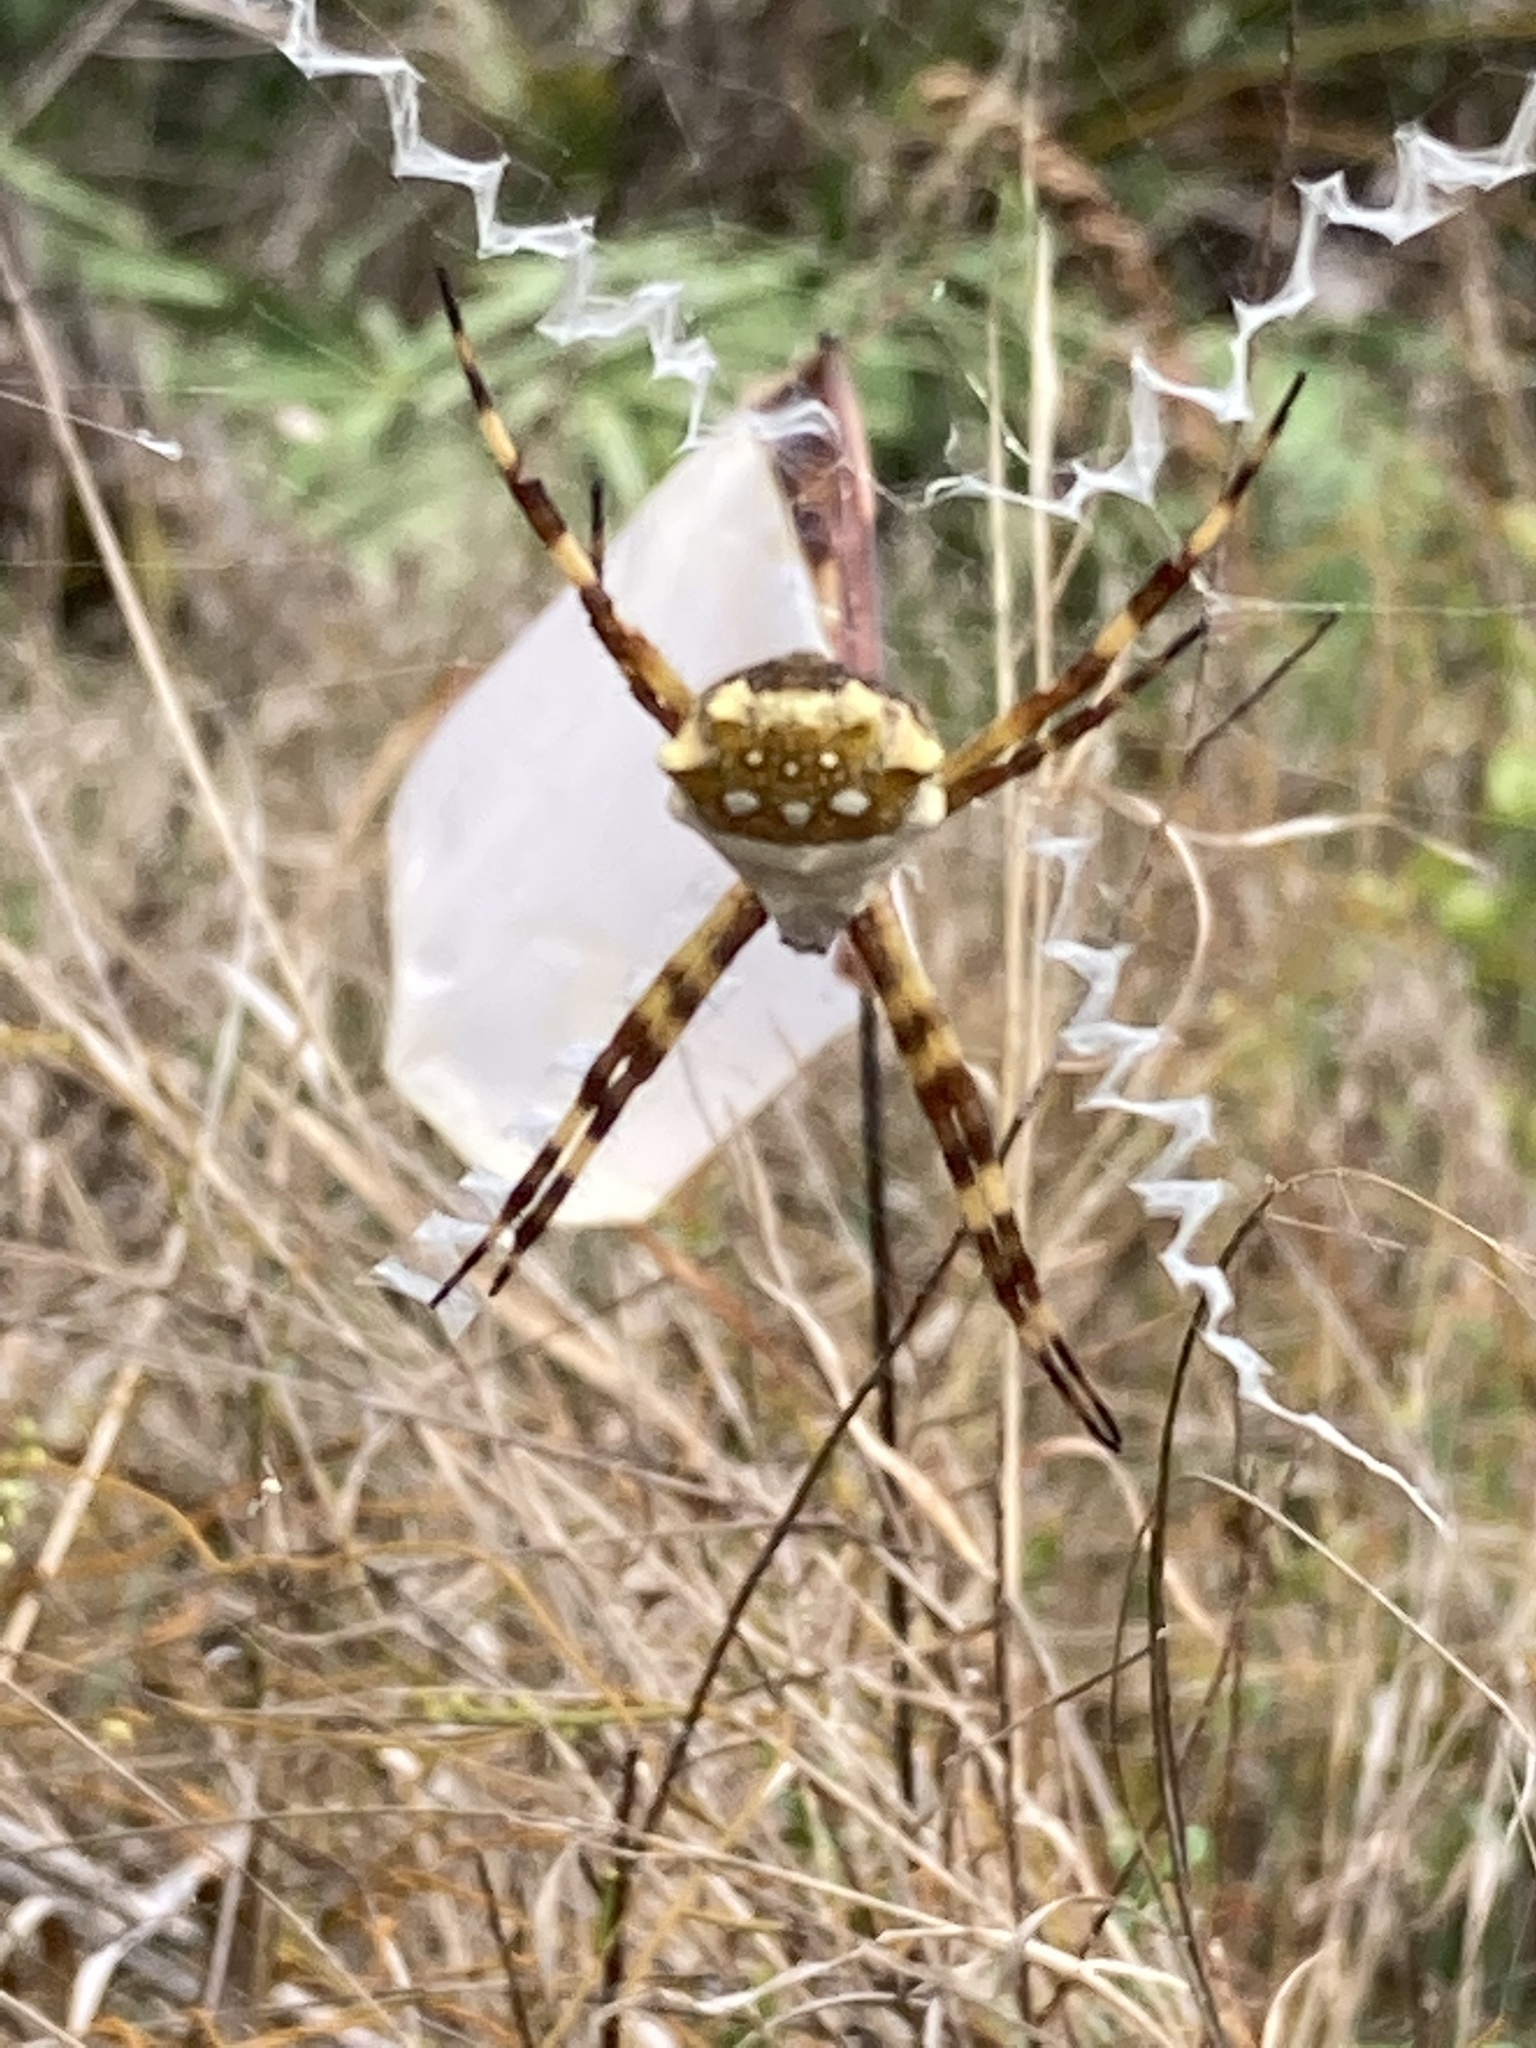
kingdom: Animalia
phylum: Arthropoda
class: Arachnida
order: Araneae
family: Araneidae
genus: Argiope
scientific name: Argiope argentata
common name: Orb weavers
